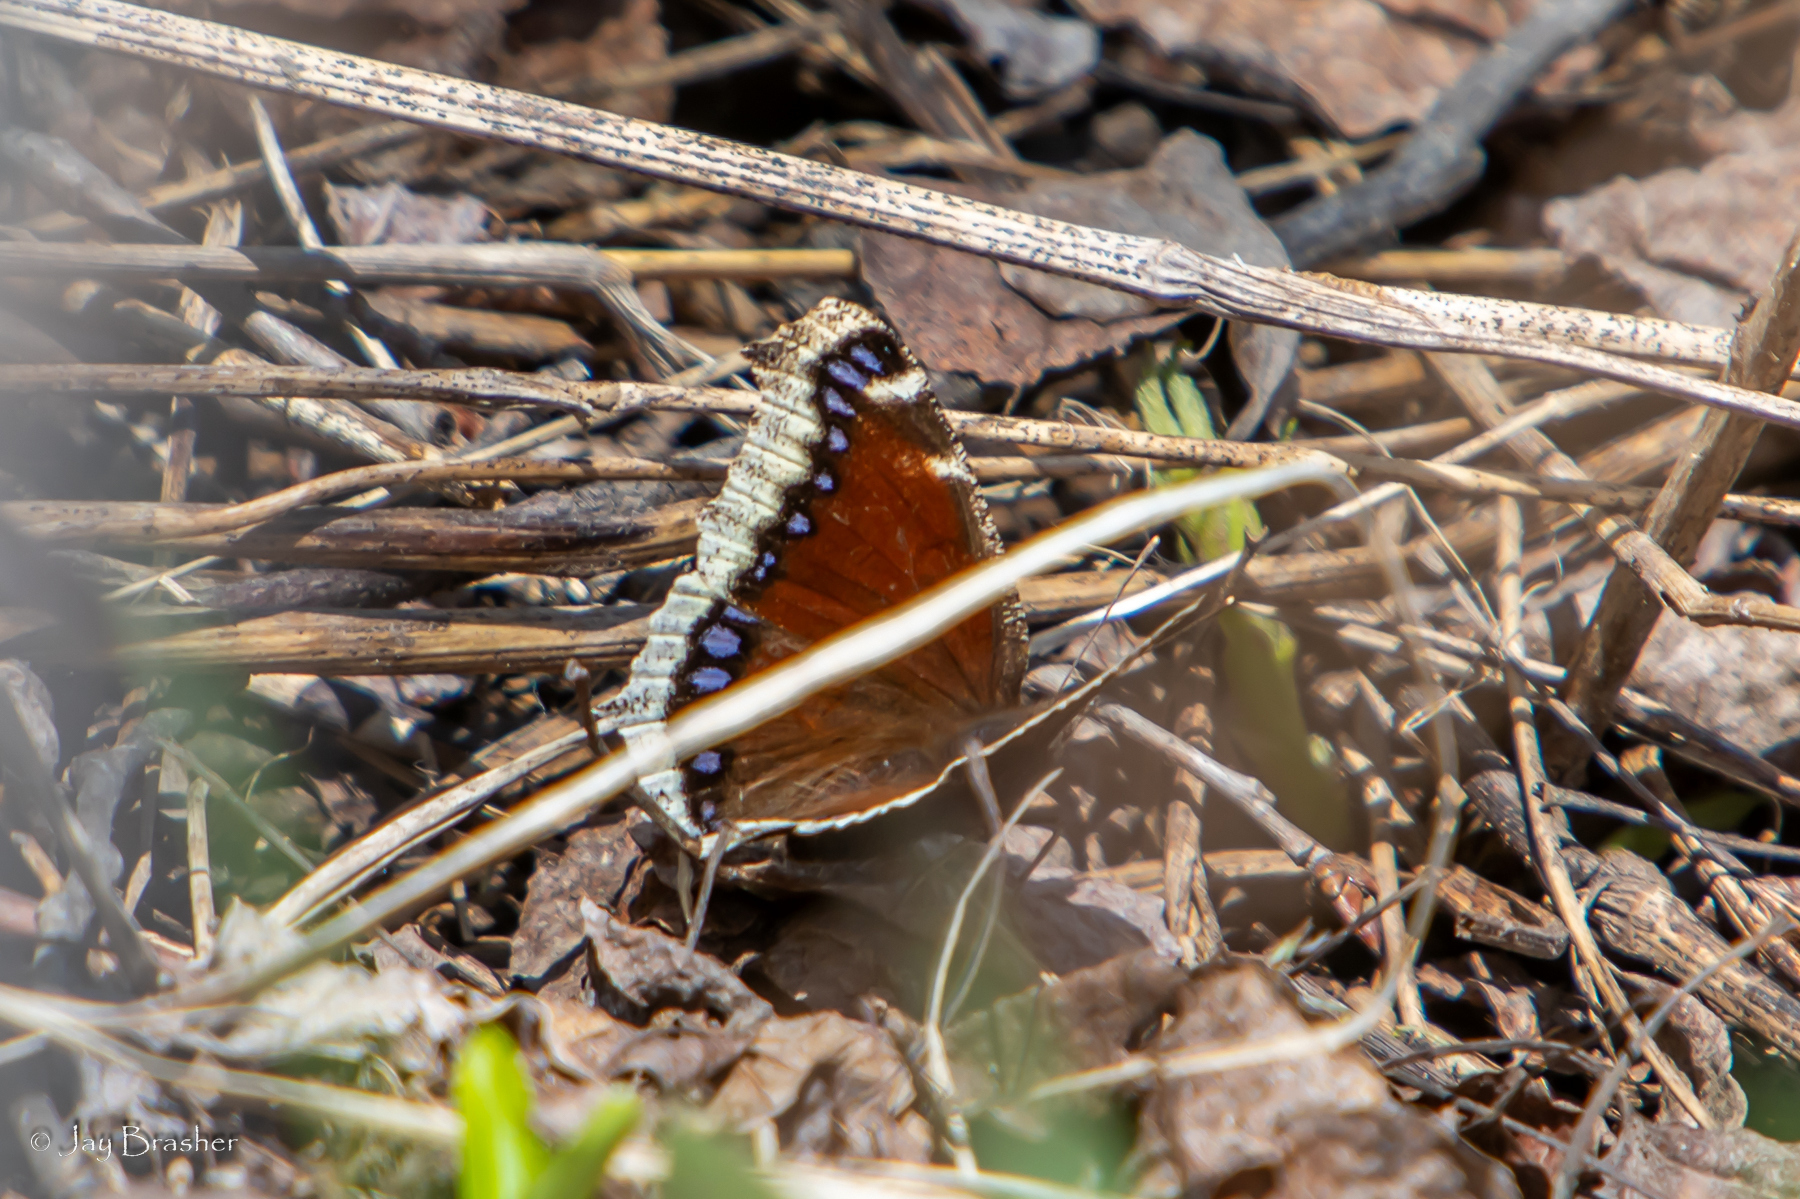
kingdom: Animalia
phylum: Arthropoda
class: Insecta
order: Lepidoptera
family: Nymphalidae
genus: Nymphalis
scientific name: Nymphalis antiopa
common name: Camberwell beauty
